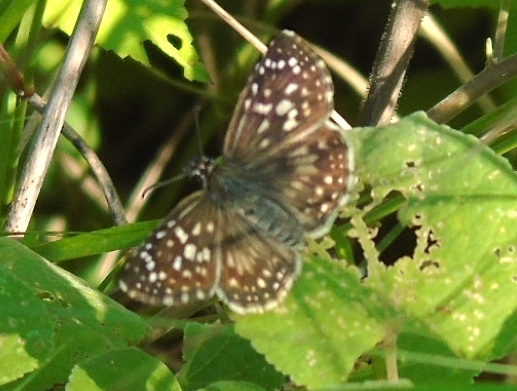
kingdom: Animalia
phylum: Arthropoda
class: Insecta
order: Lepidoptera
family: Hesperiidae
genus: Burnsius
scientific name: Burnsius
